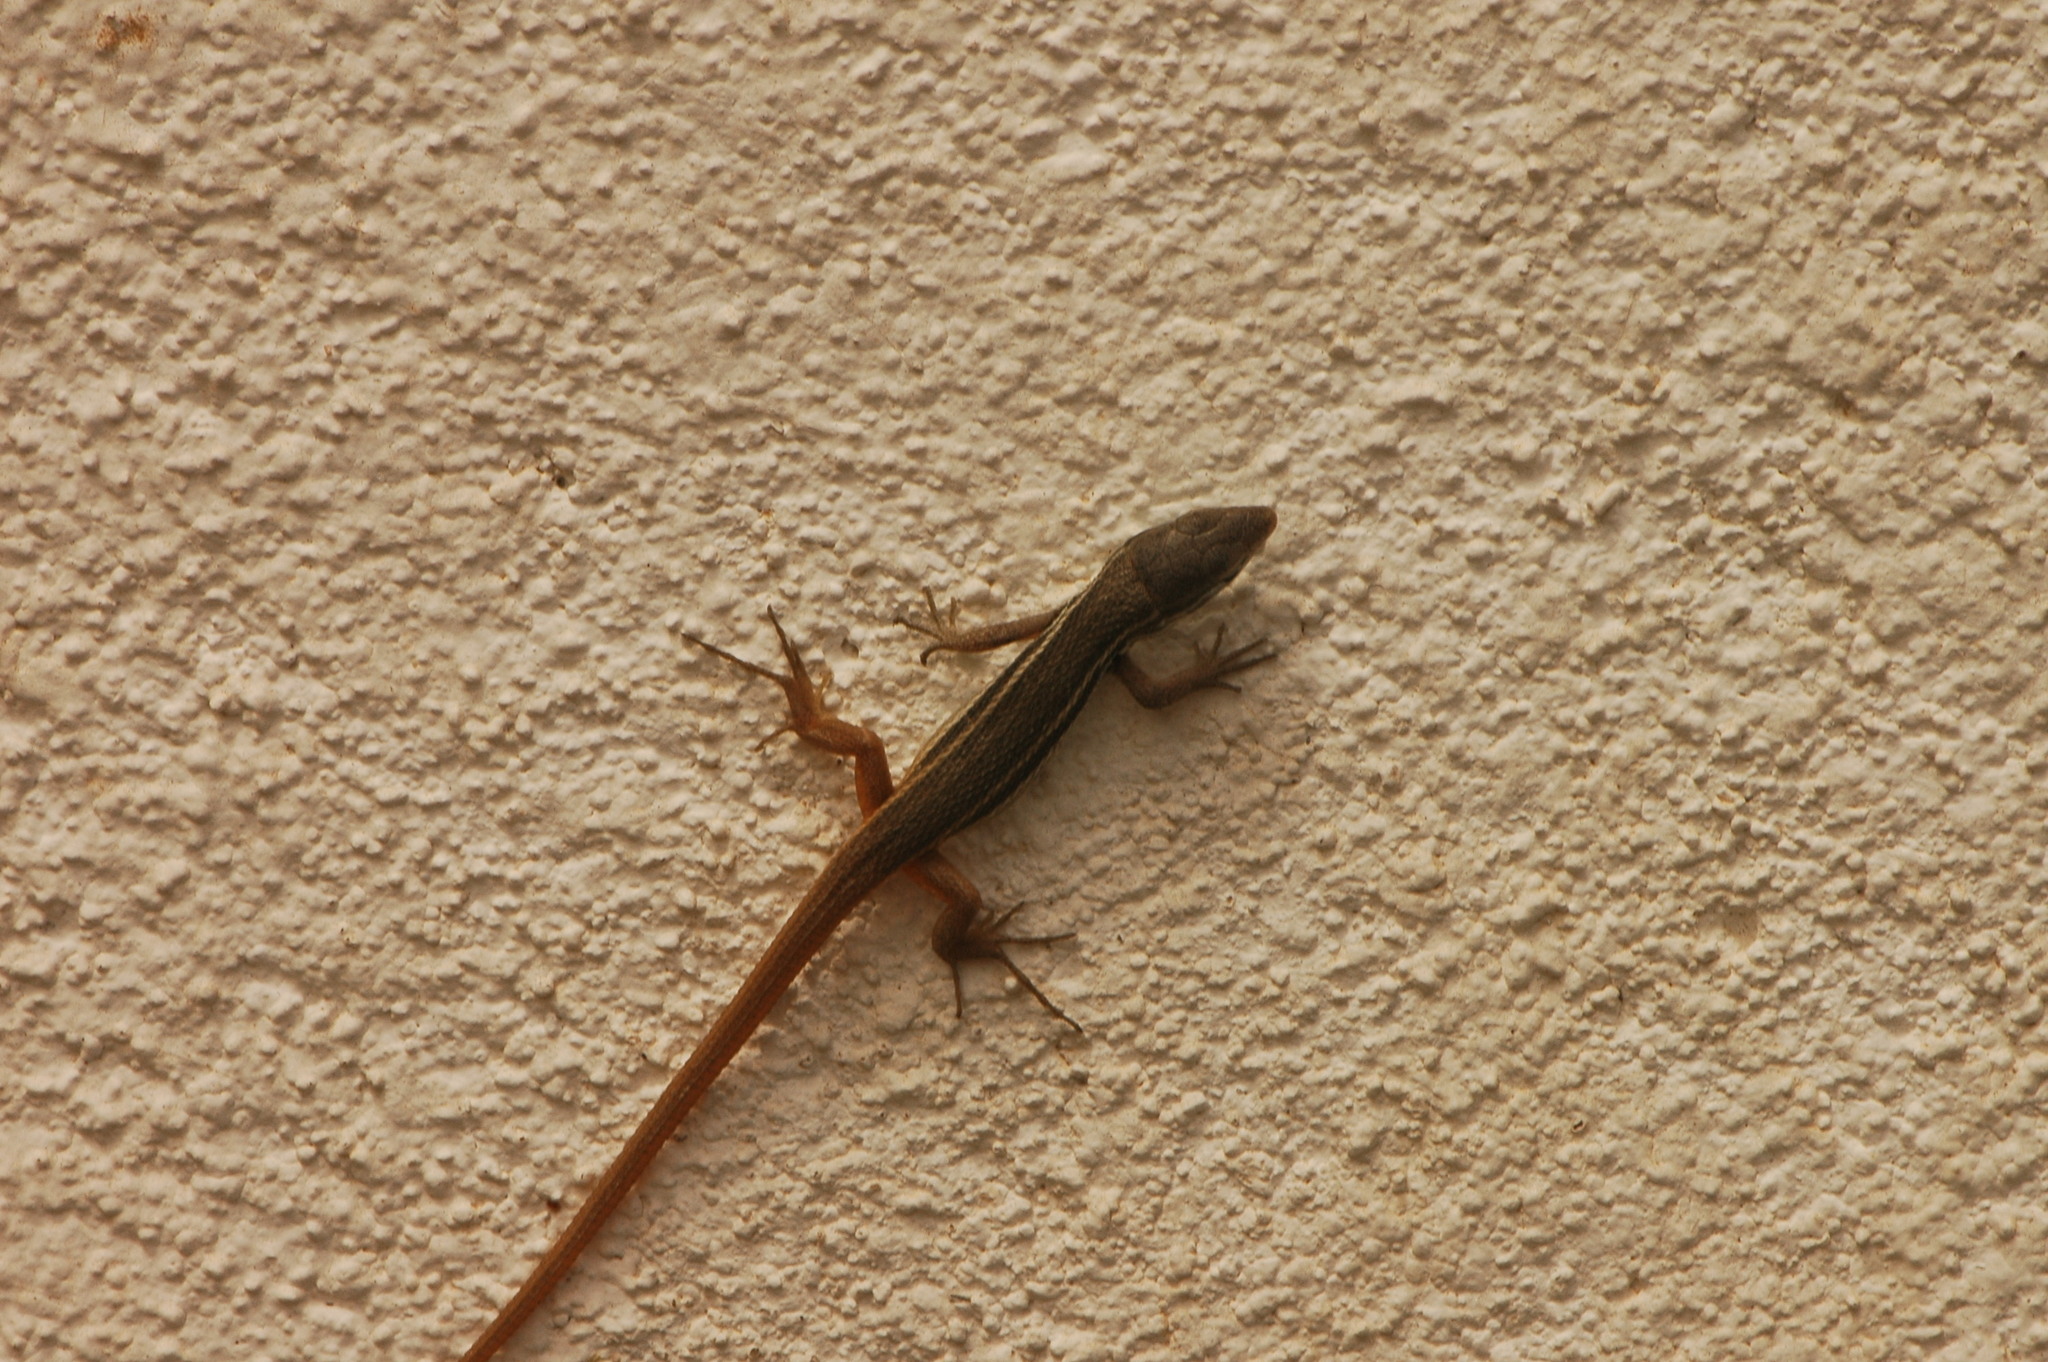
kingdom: Animalia
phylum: Chordata
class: Squamata
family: Lacertidae
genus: Psammodromus
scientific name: Psammodromus algirus
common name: Algerian psammodromus
